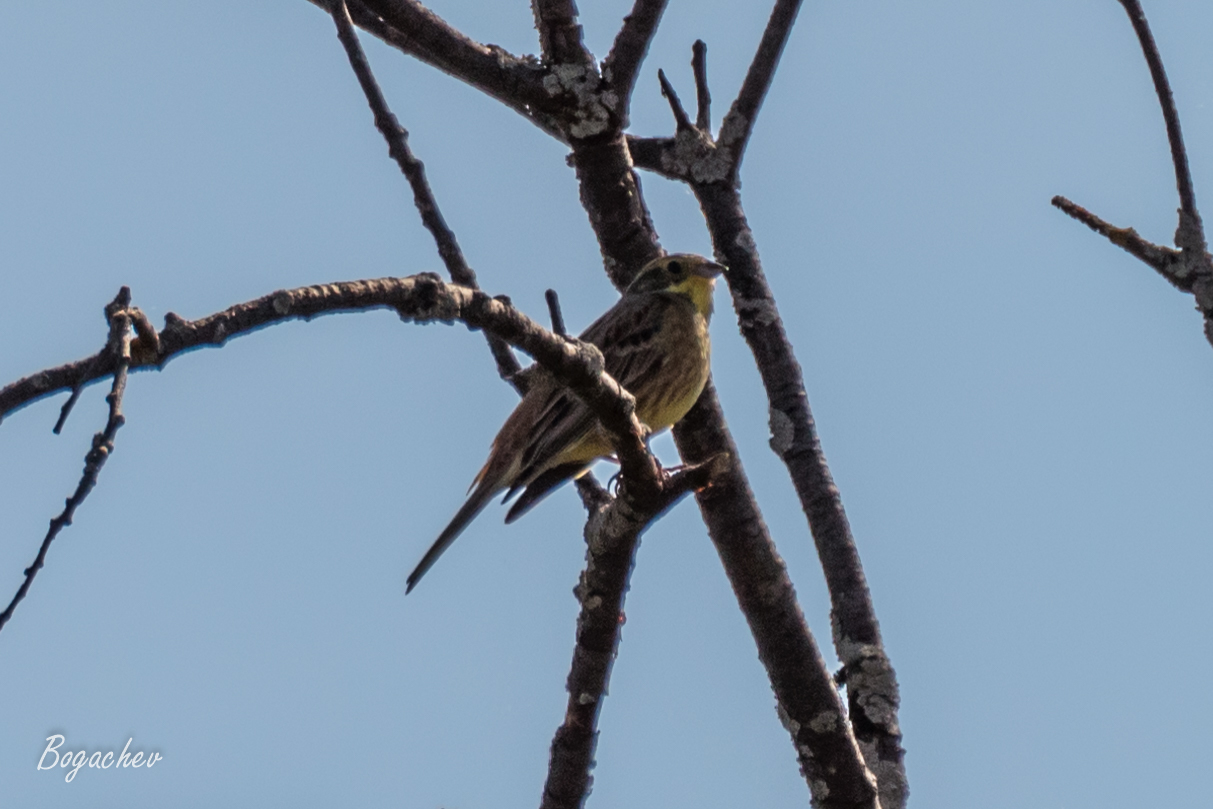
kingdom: Animalia
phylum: Chordata
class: Aves
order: Passeriformes
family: Emberizidae
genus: Emberiza
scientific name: Emberiza citrinella
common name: Yellowhammer
